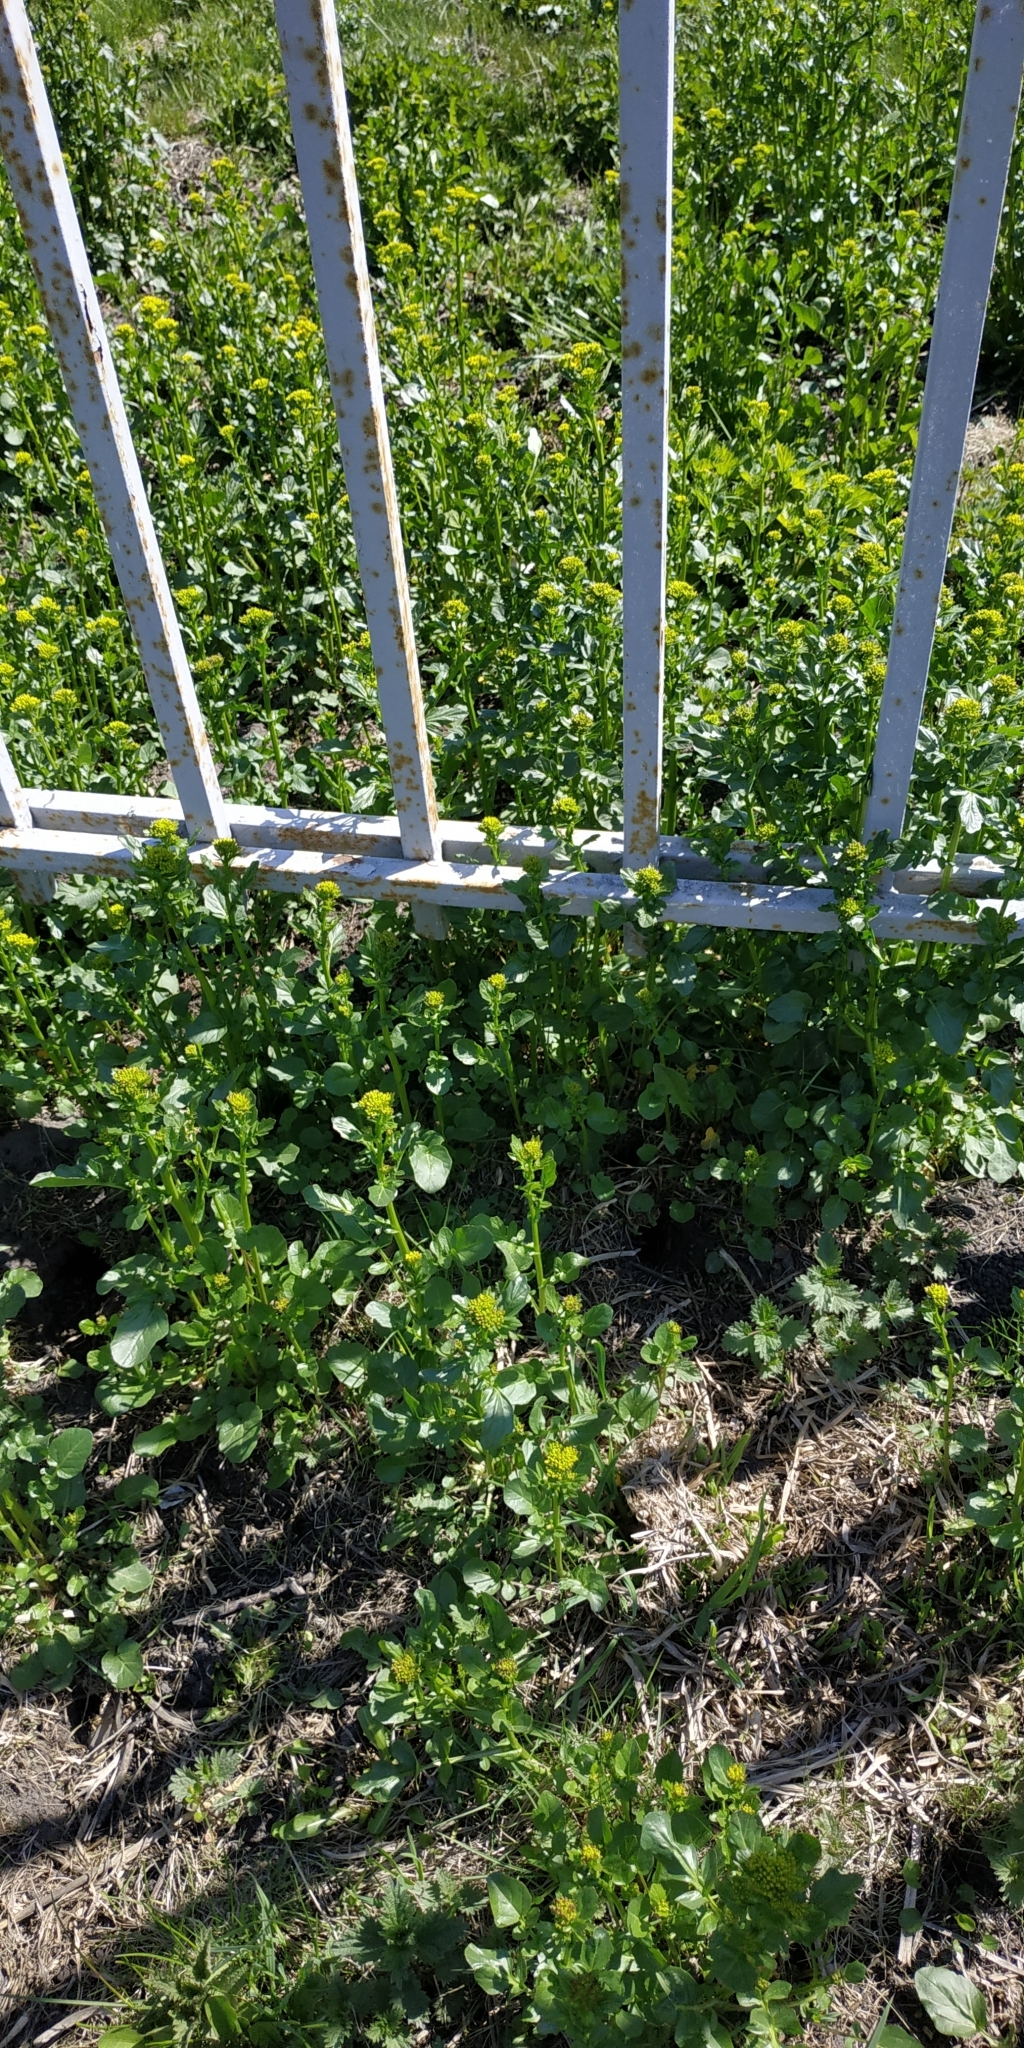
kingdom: Plantae
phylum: Tracheophyta
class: Magnoliopsida
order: Brassicales
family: Brassicaceae
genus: Barbarea
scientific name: Barbarea vulgaris
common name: Cressy-greens
